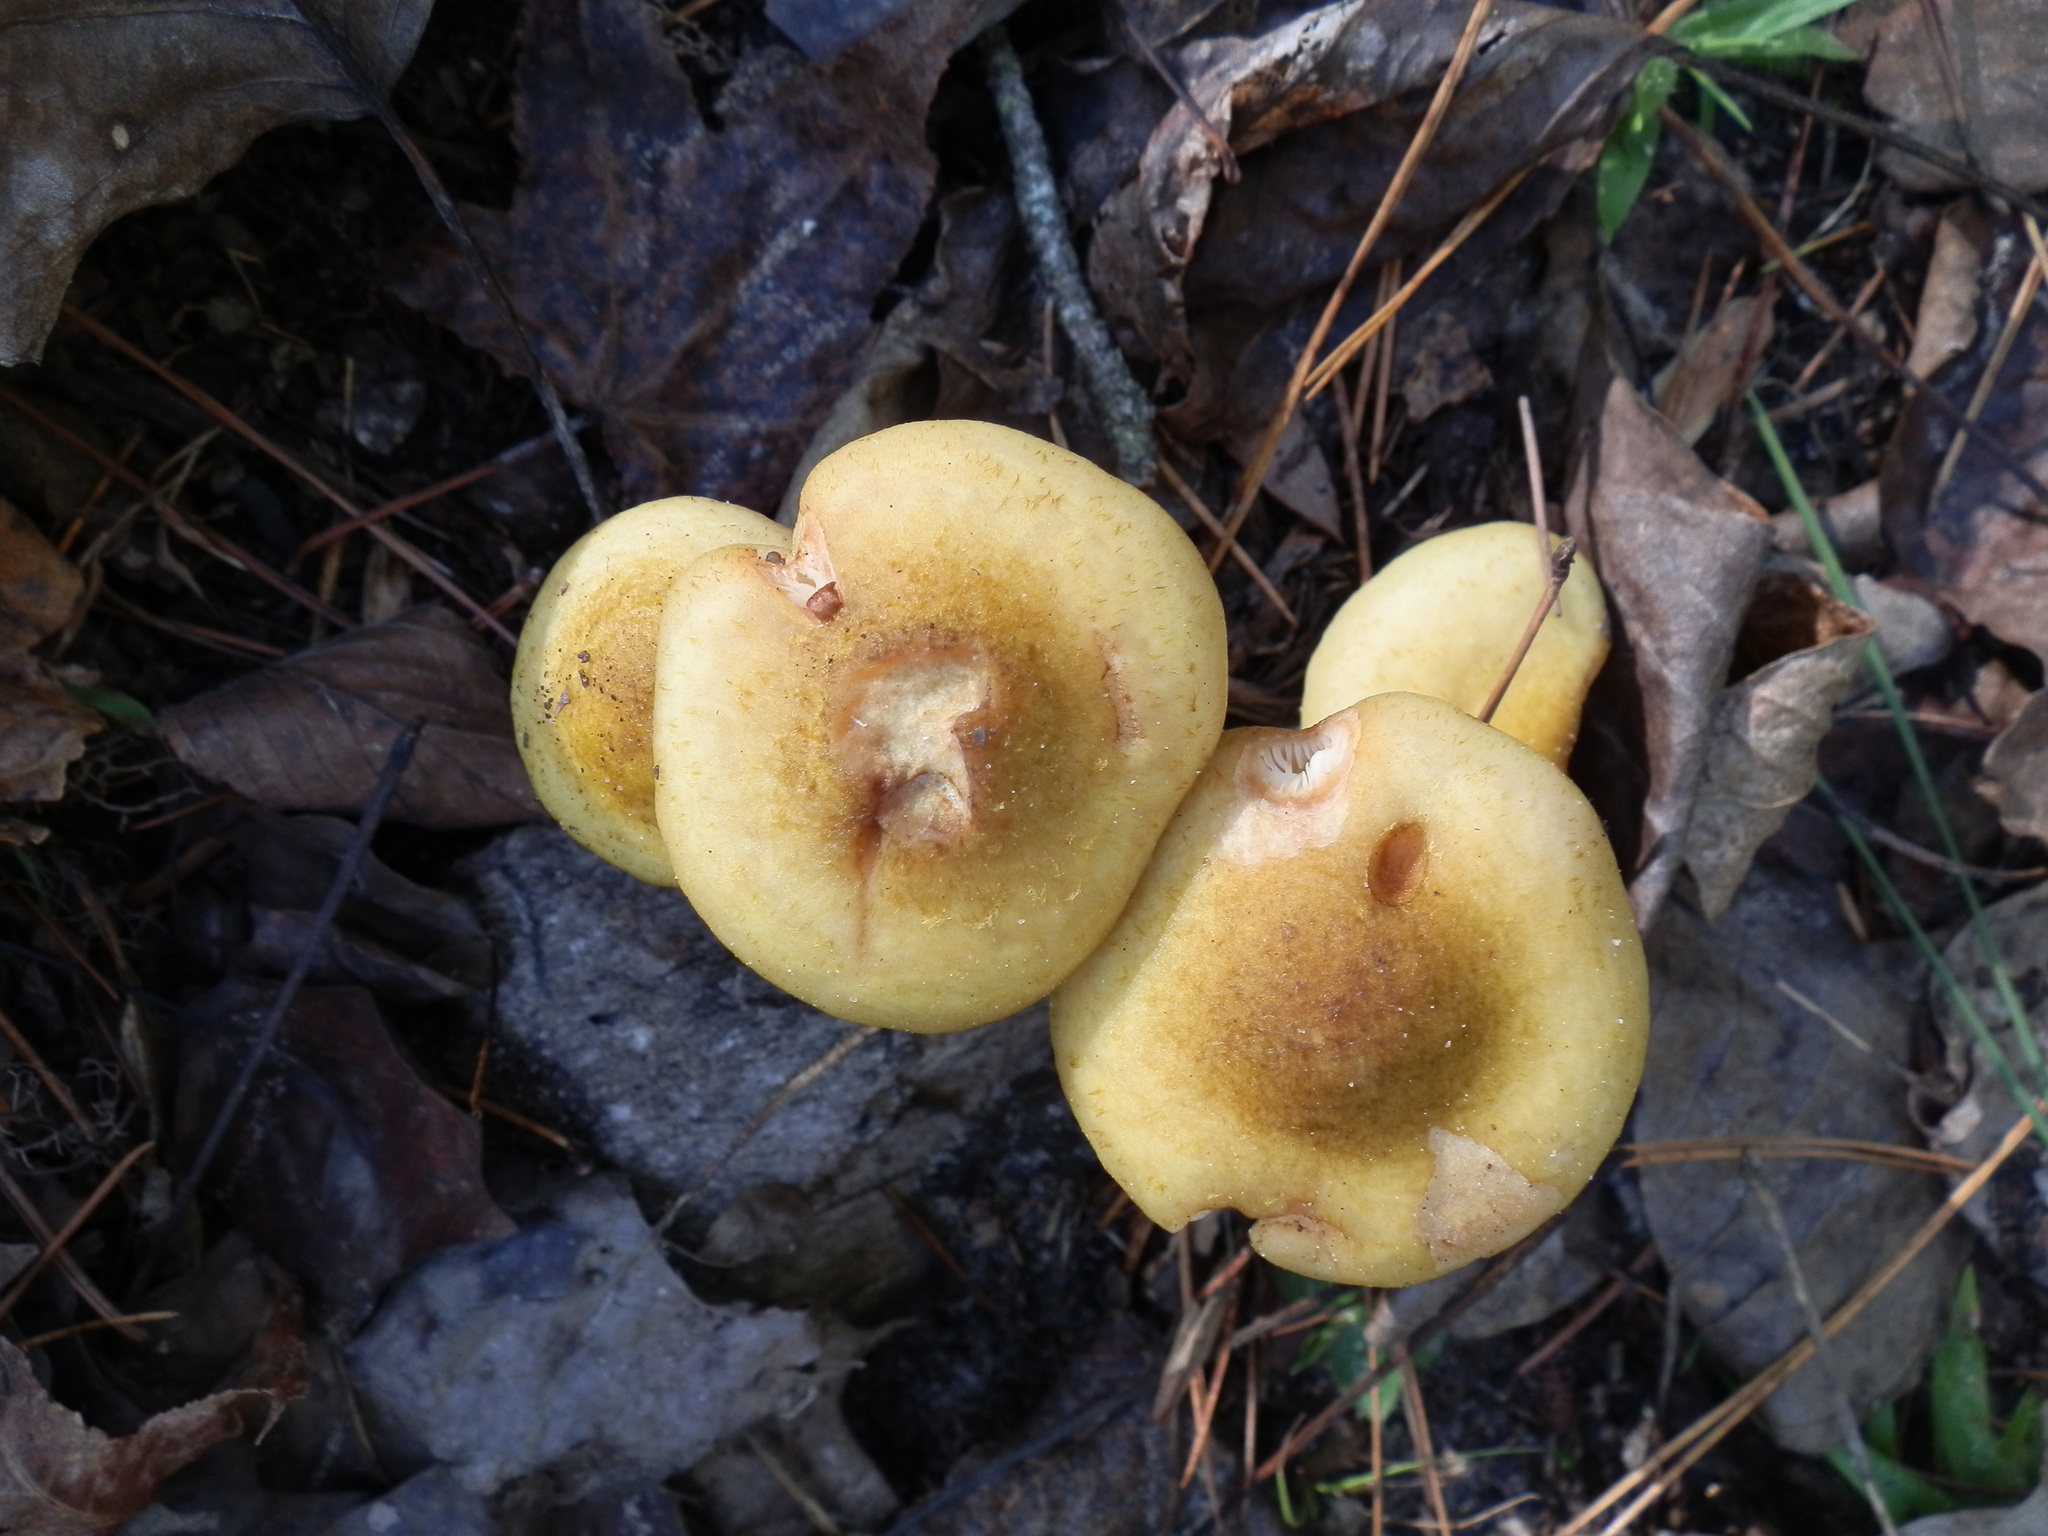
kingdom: Fungi
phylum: Basidiomycota
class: Agaricomycetes
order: Agaricales
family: Physalacriaceae
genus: Armillaria
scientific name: Armillaria mellea
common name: Honey fungus
